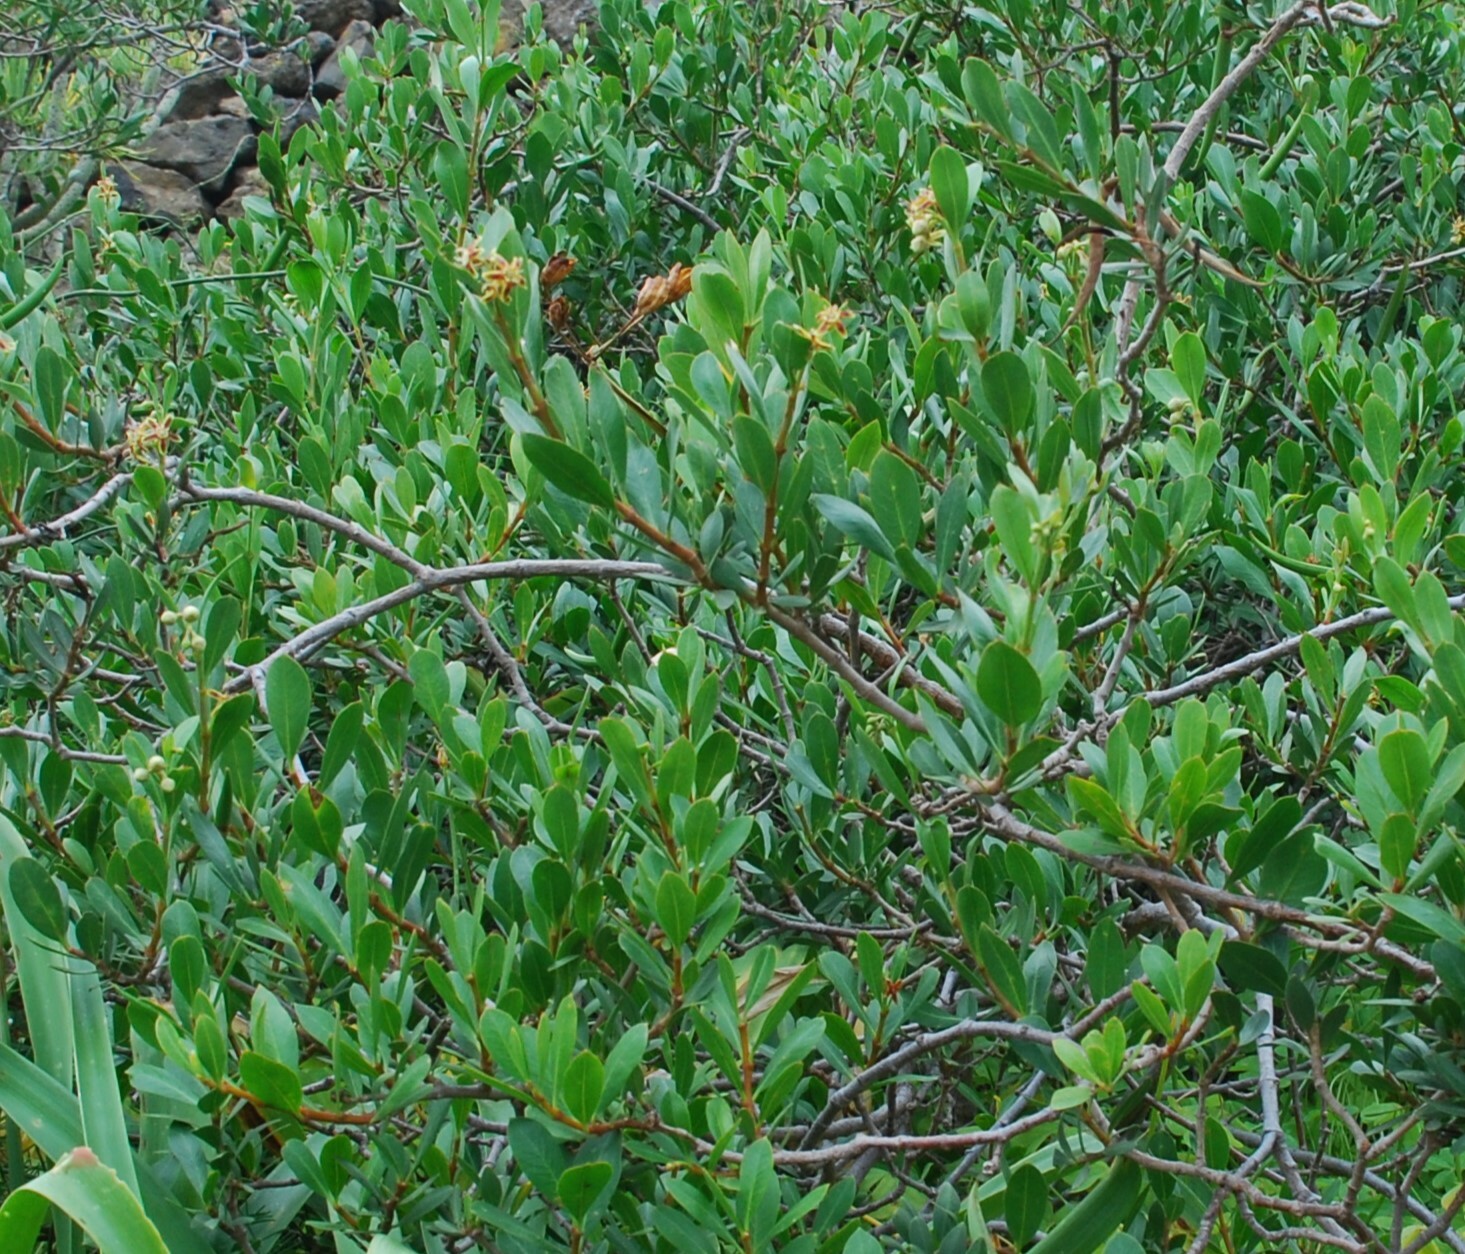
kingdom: Plantae
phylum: Tracheophyta
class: Magnoliopsida
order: Gentianales
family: Apocynaceae
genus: Periploca
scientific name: Periploca laevigata
